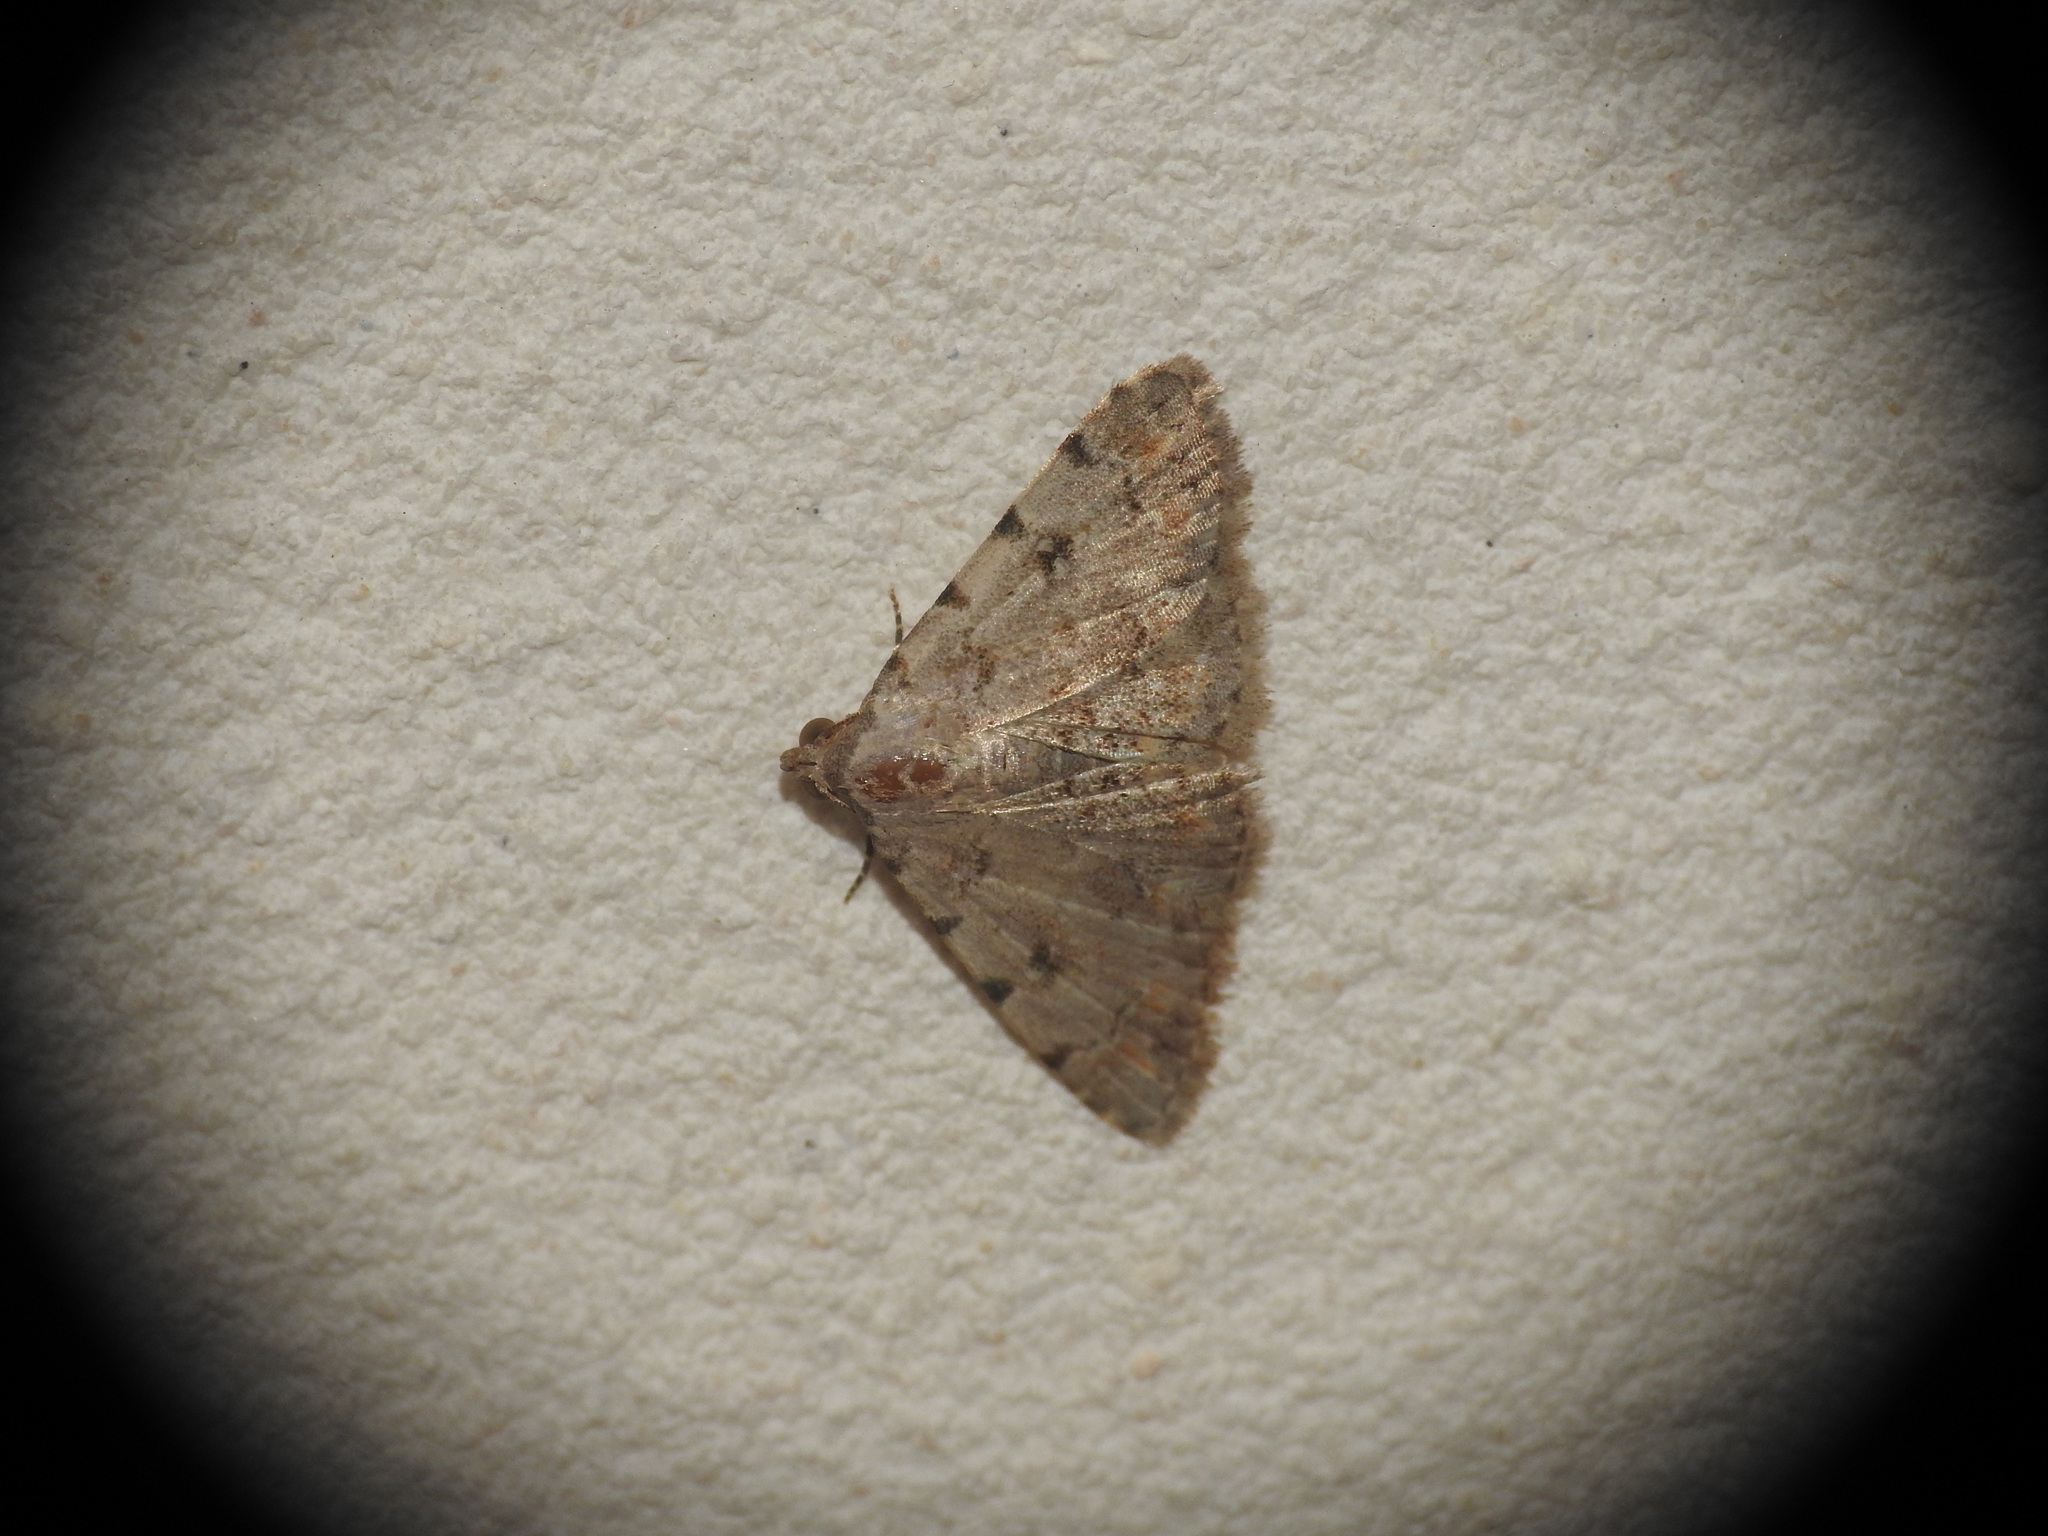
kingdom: Animalia
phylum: Arthropoda
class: Insecta
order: Lepidoptera
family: Noctuidae
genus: Metachrostis
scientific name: Metachrostis velox
